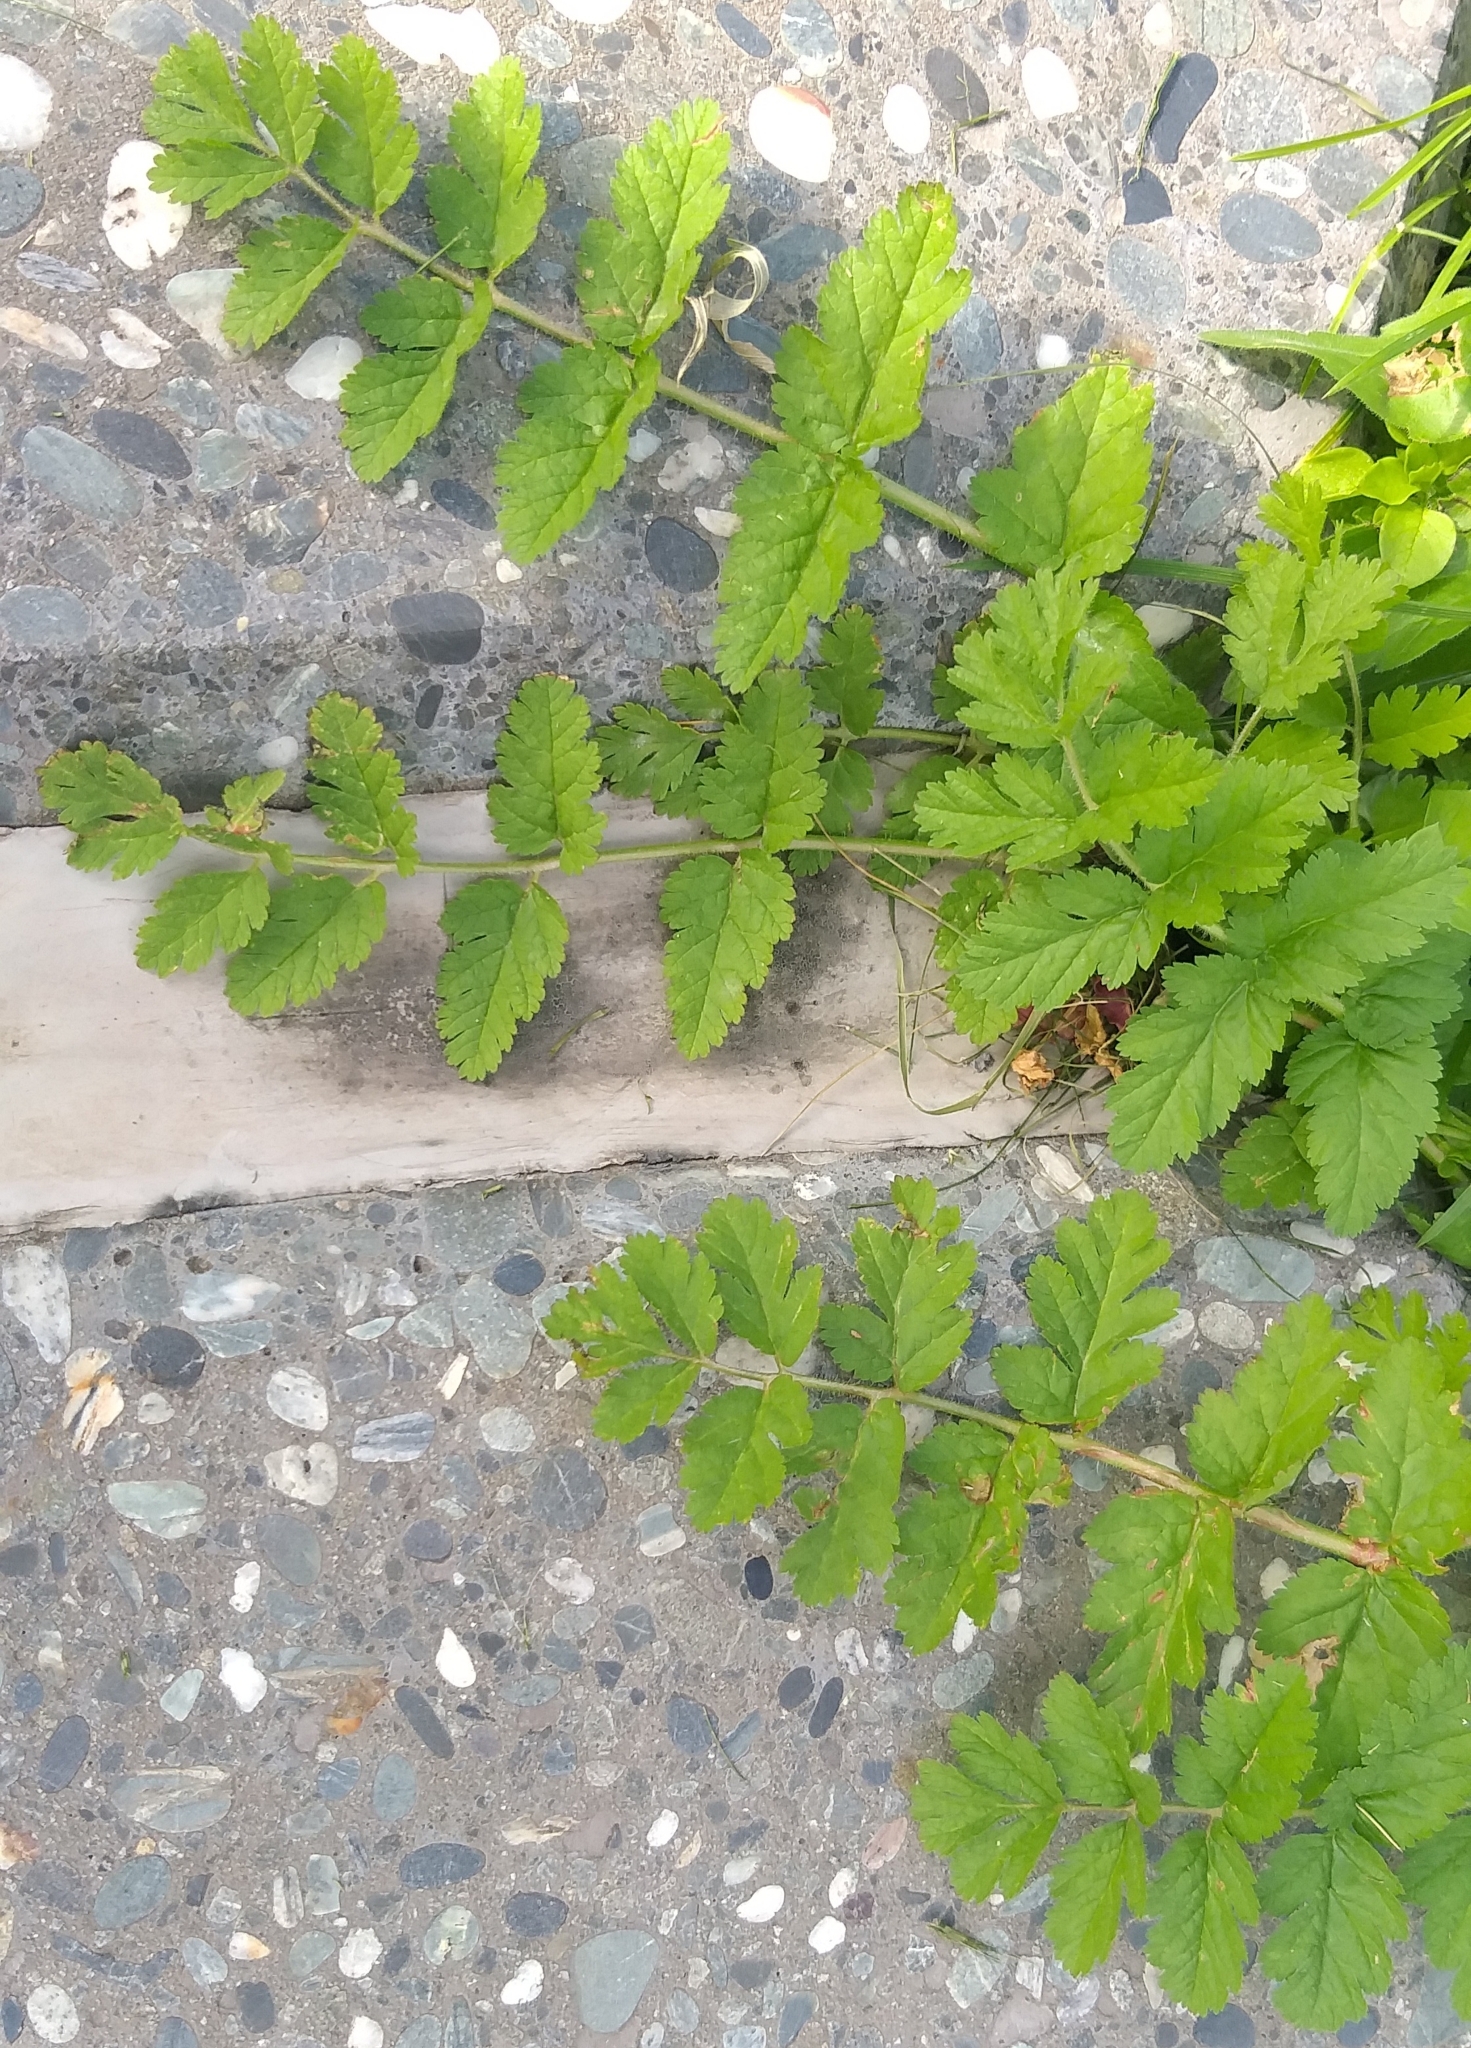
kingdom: Plantae
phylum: Tracheophyta
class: Magnoliopsida
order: Geraniales
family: Geraniaceae
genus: Erodium
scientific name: Erodium moschatum
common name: Musk stork's-bill
